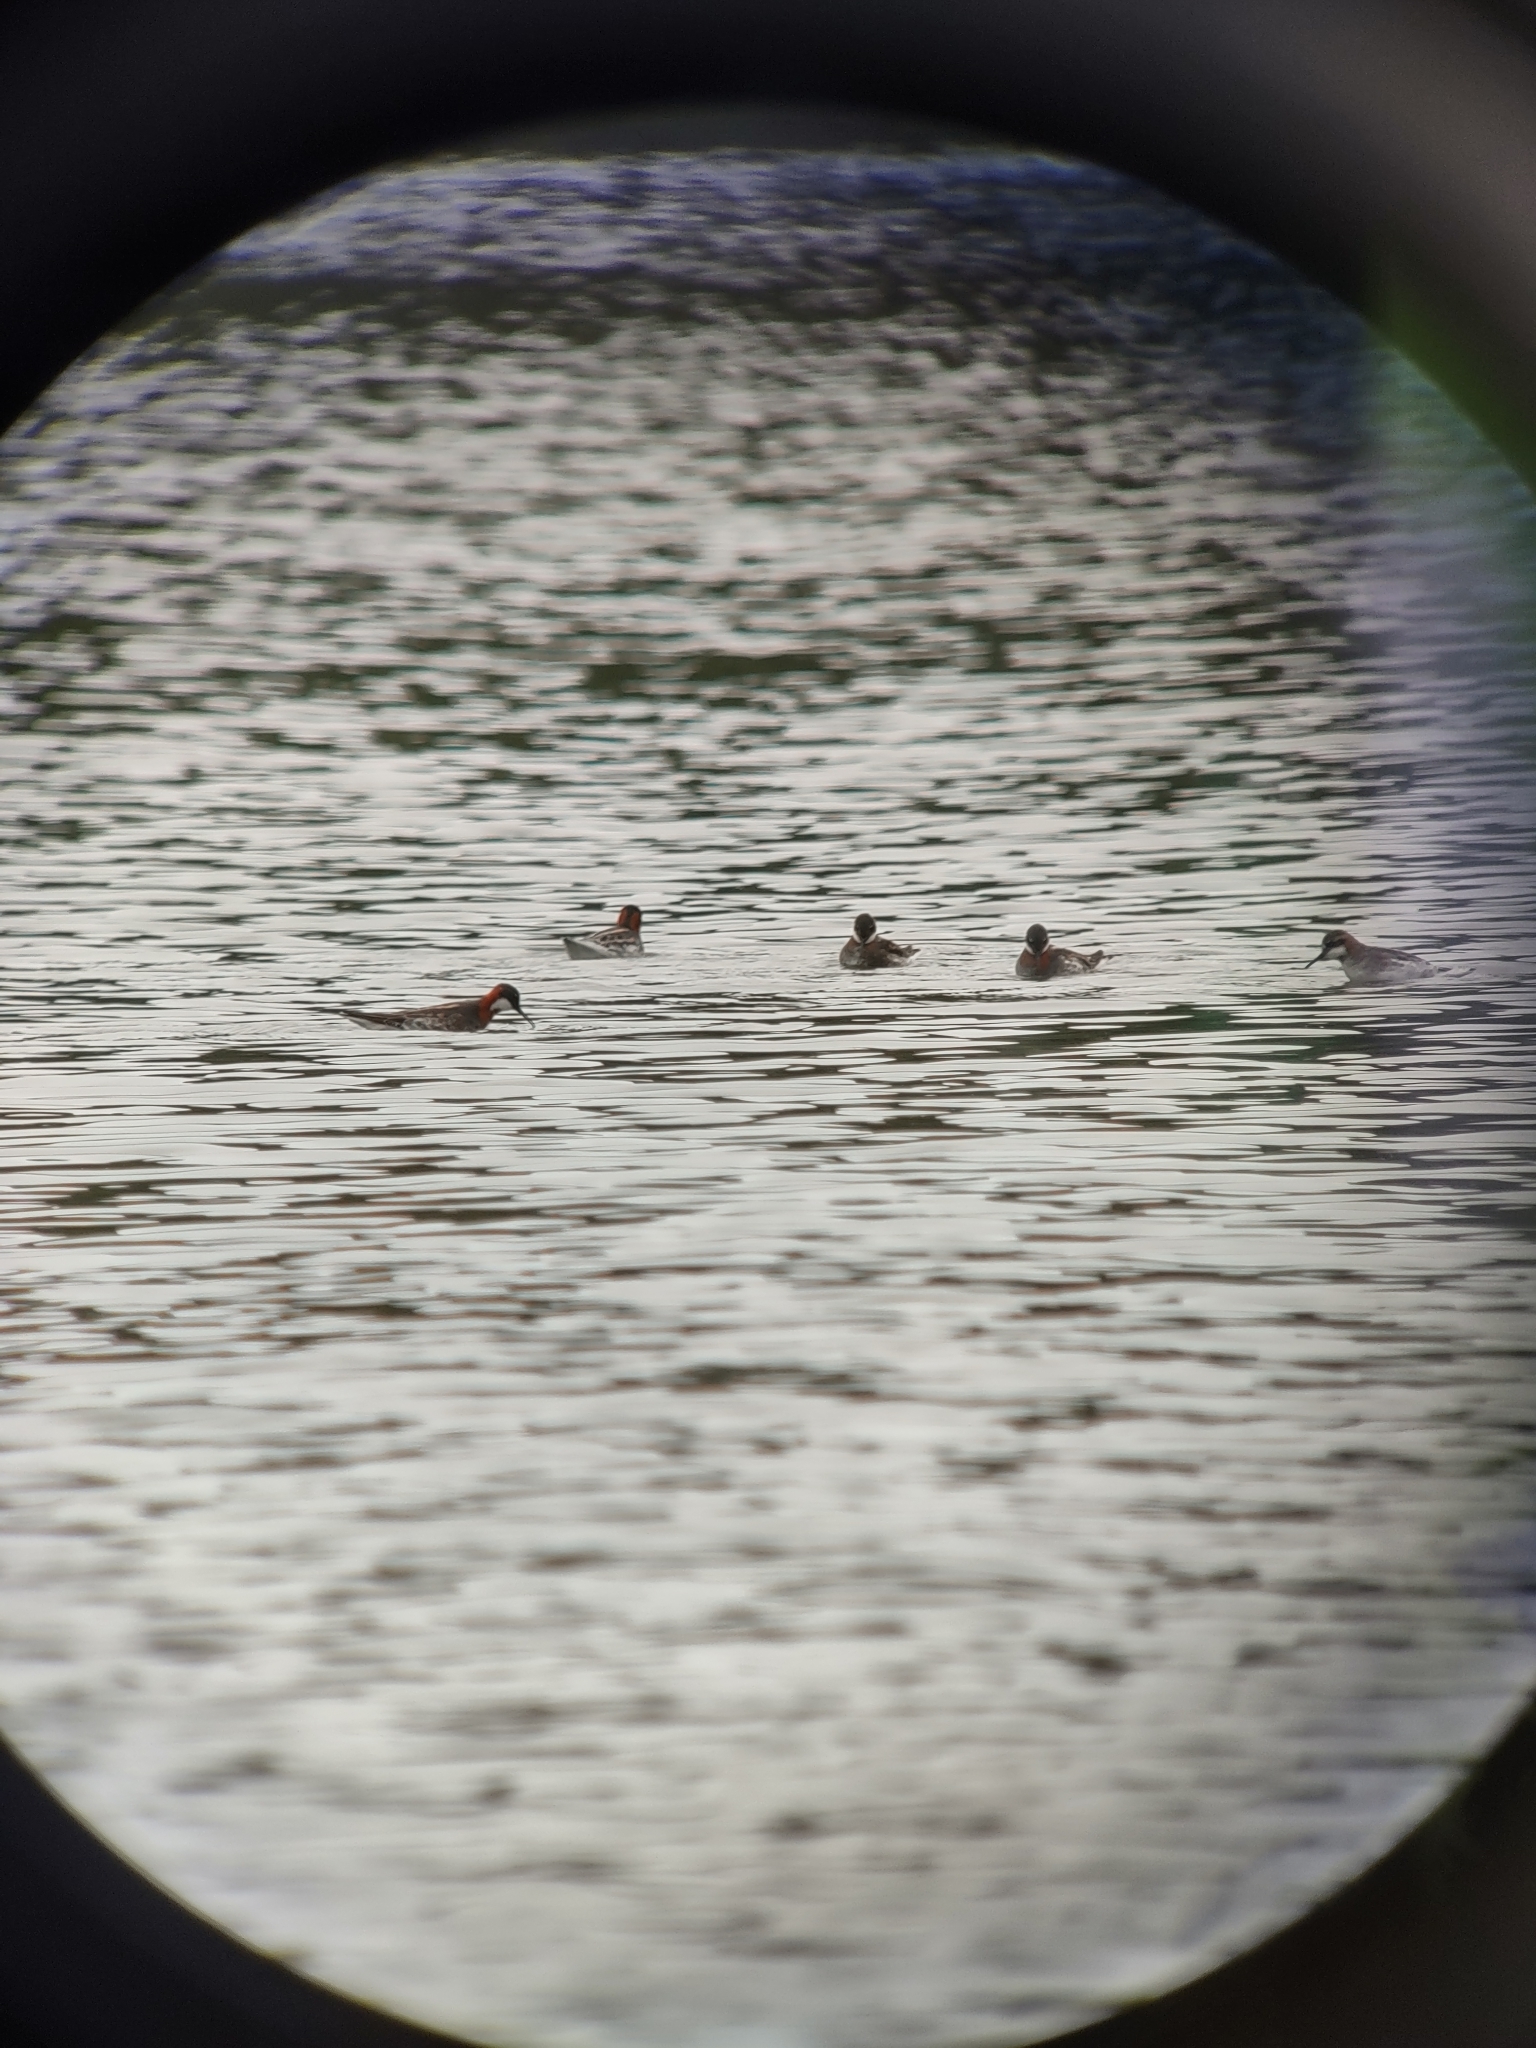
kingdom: Animalia
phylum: Chordata
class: Aves
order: Charadriiformes
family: Scolopacidae
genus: Phalaropus
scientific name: Phalaropus lobatus
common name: Red-necked phalarope
